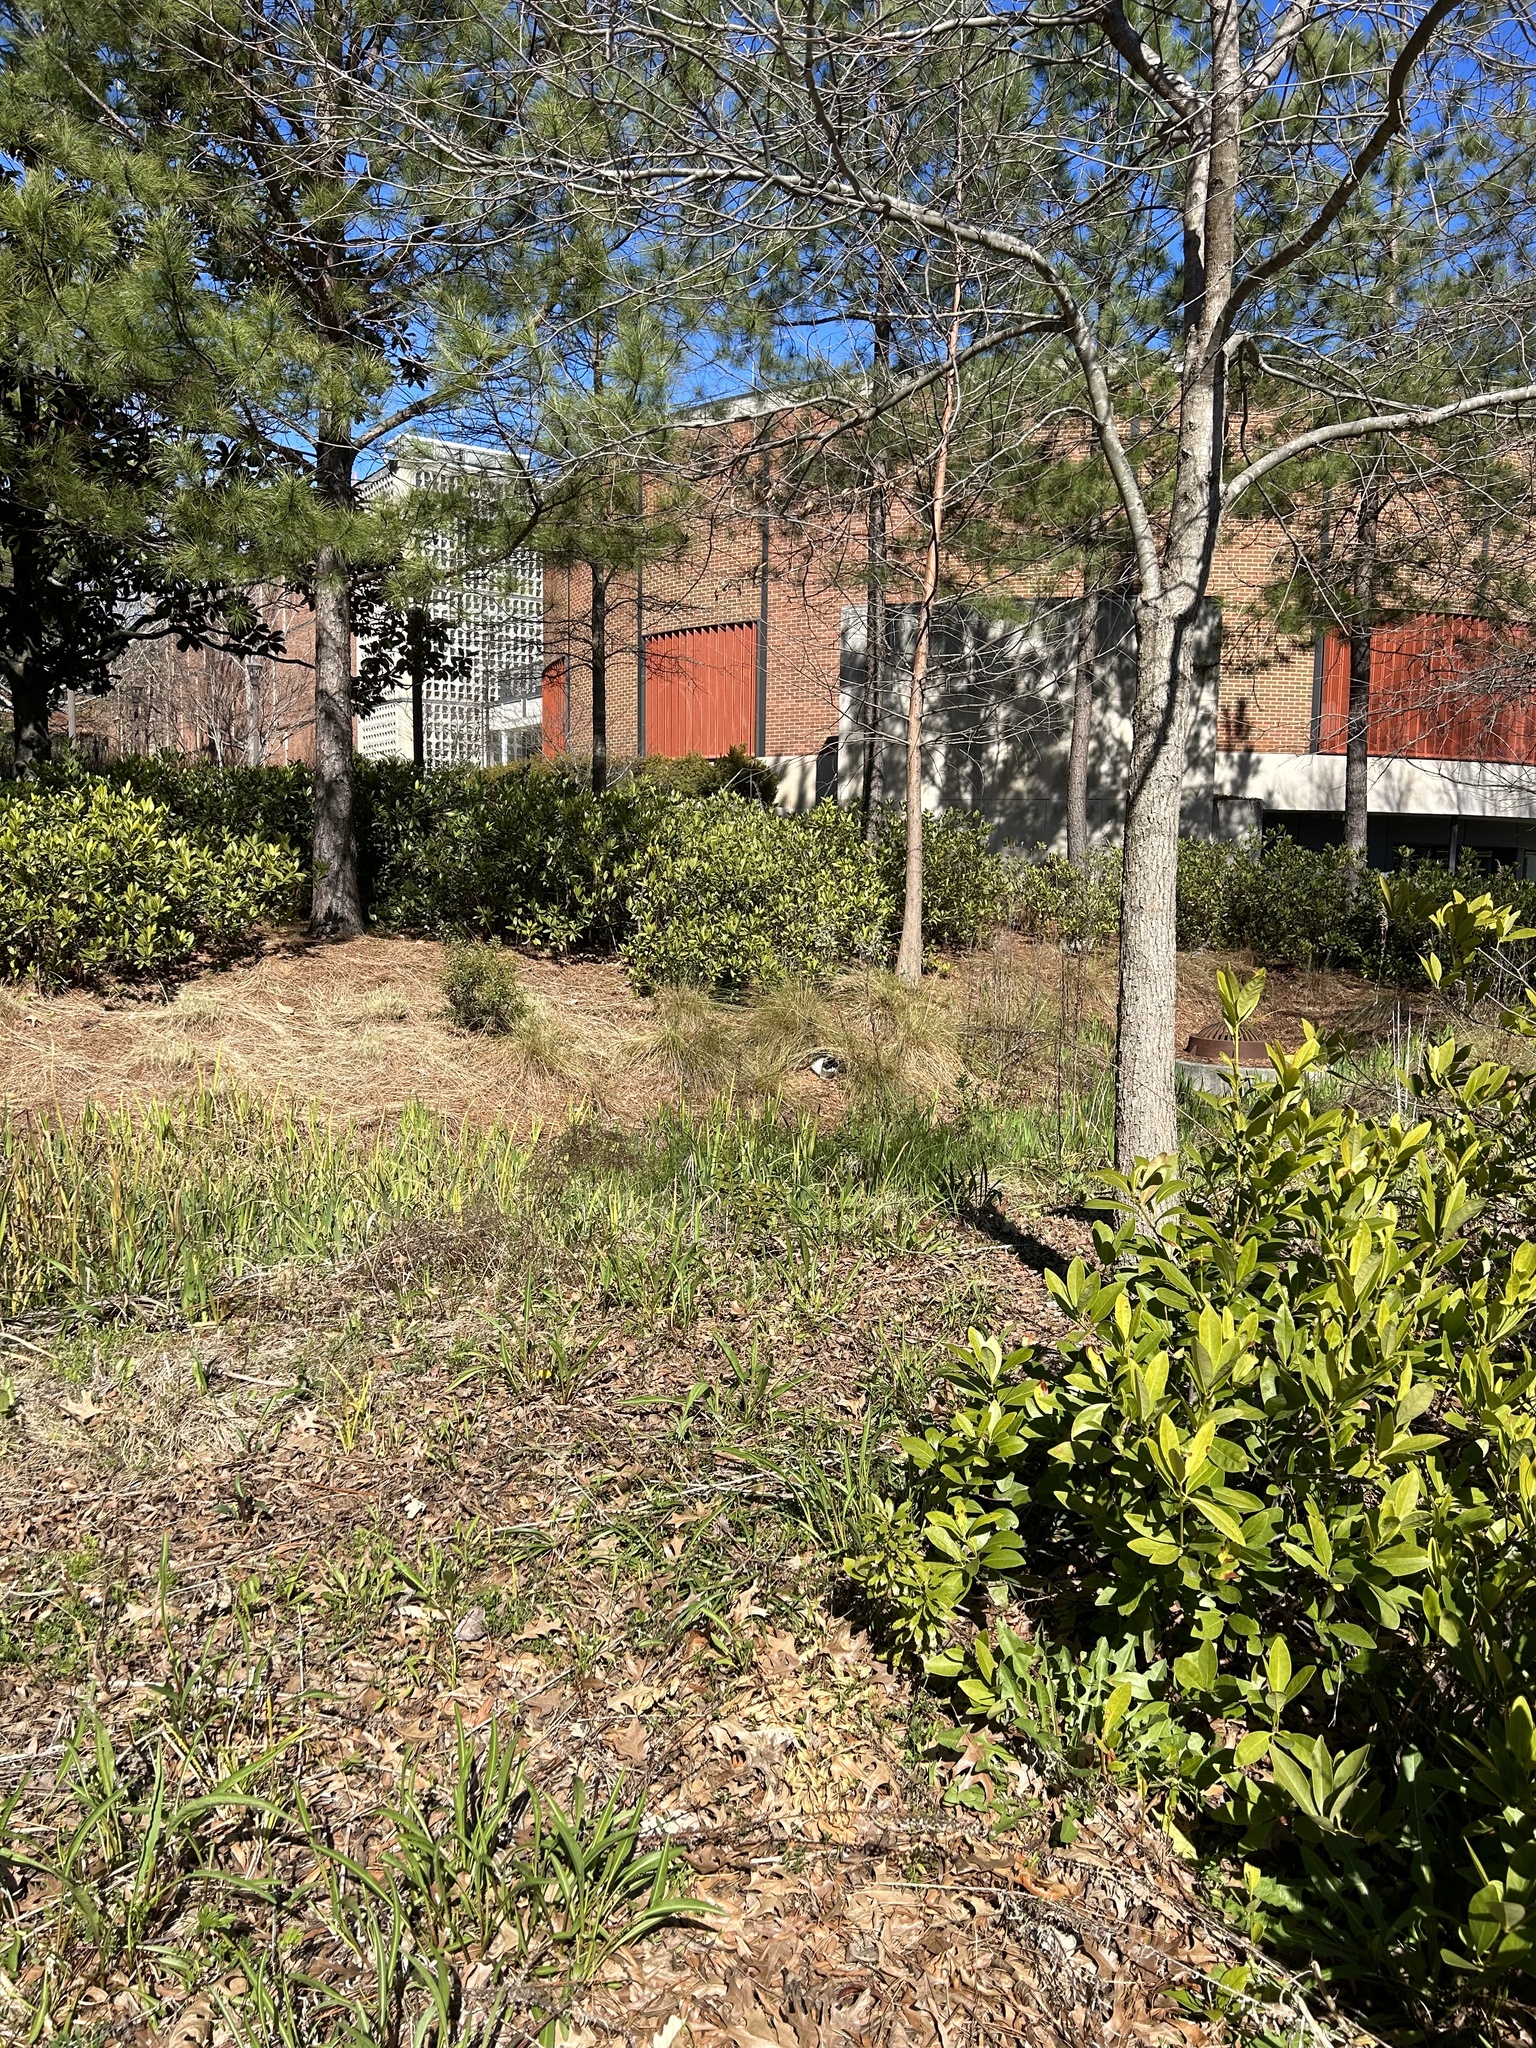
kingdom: Animalia
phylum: Chordata
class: Mammalia
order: Carnivora
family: Felidae
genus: Felis
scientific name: Felis catus
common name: Domestic cat
